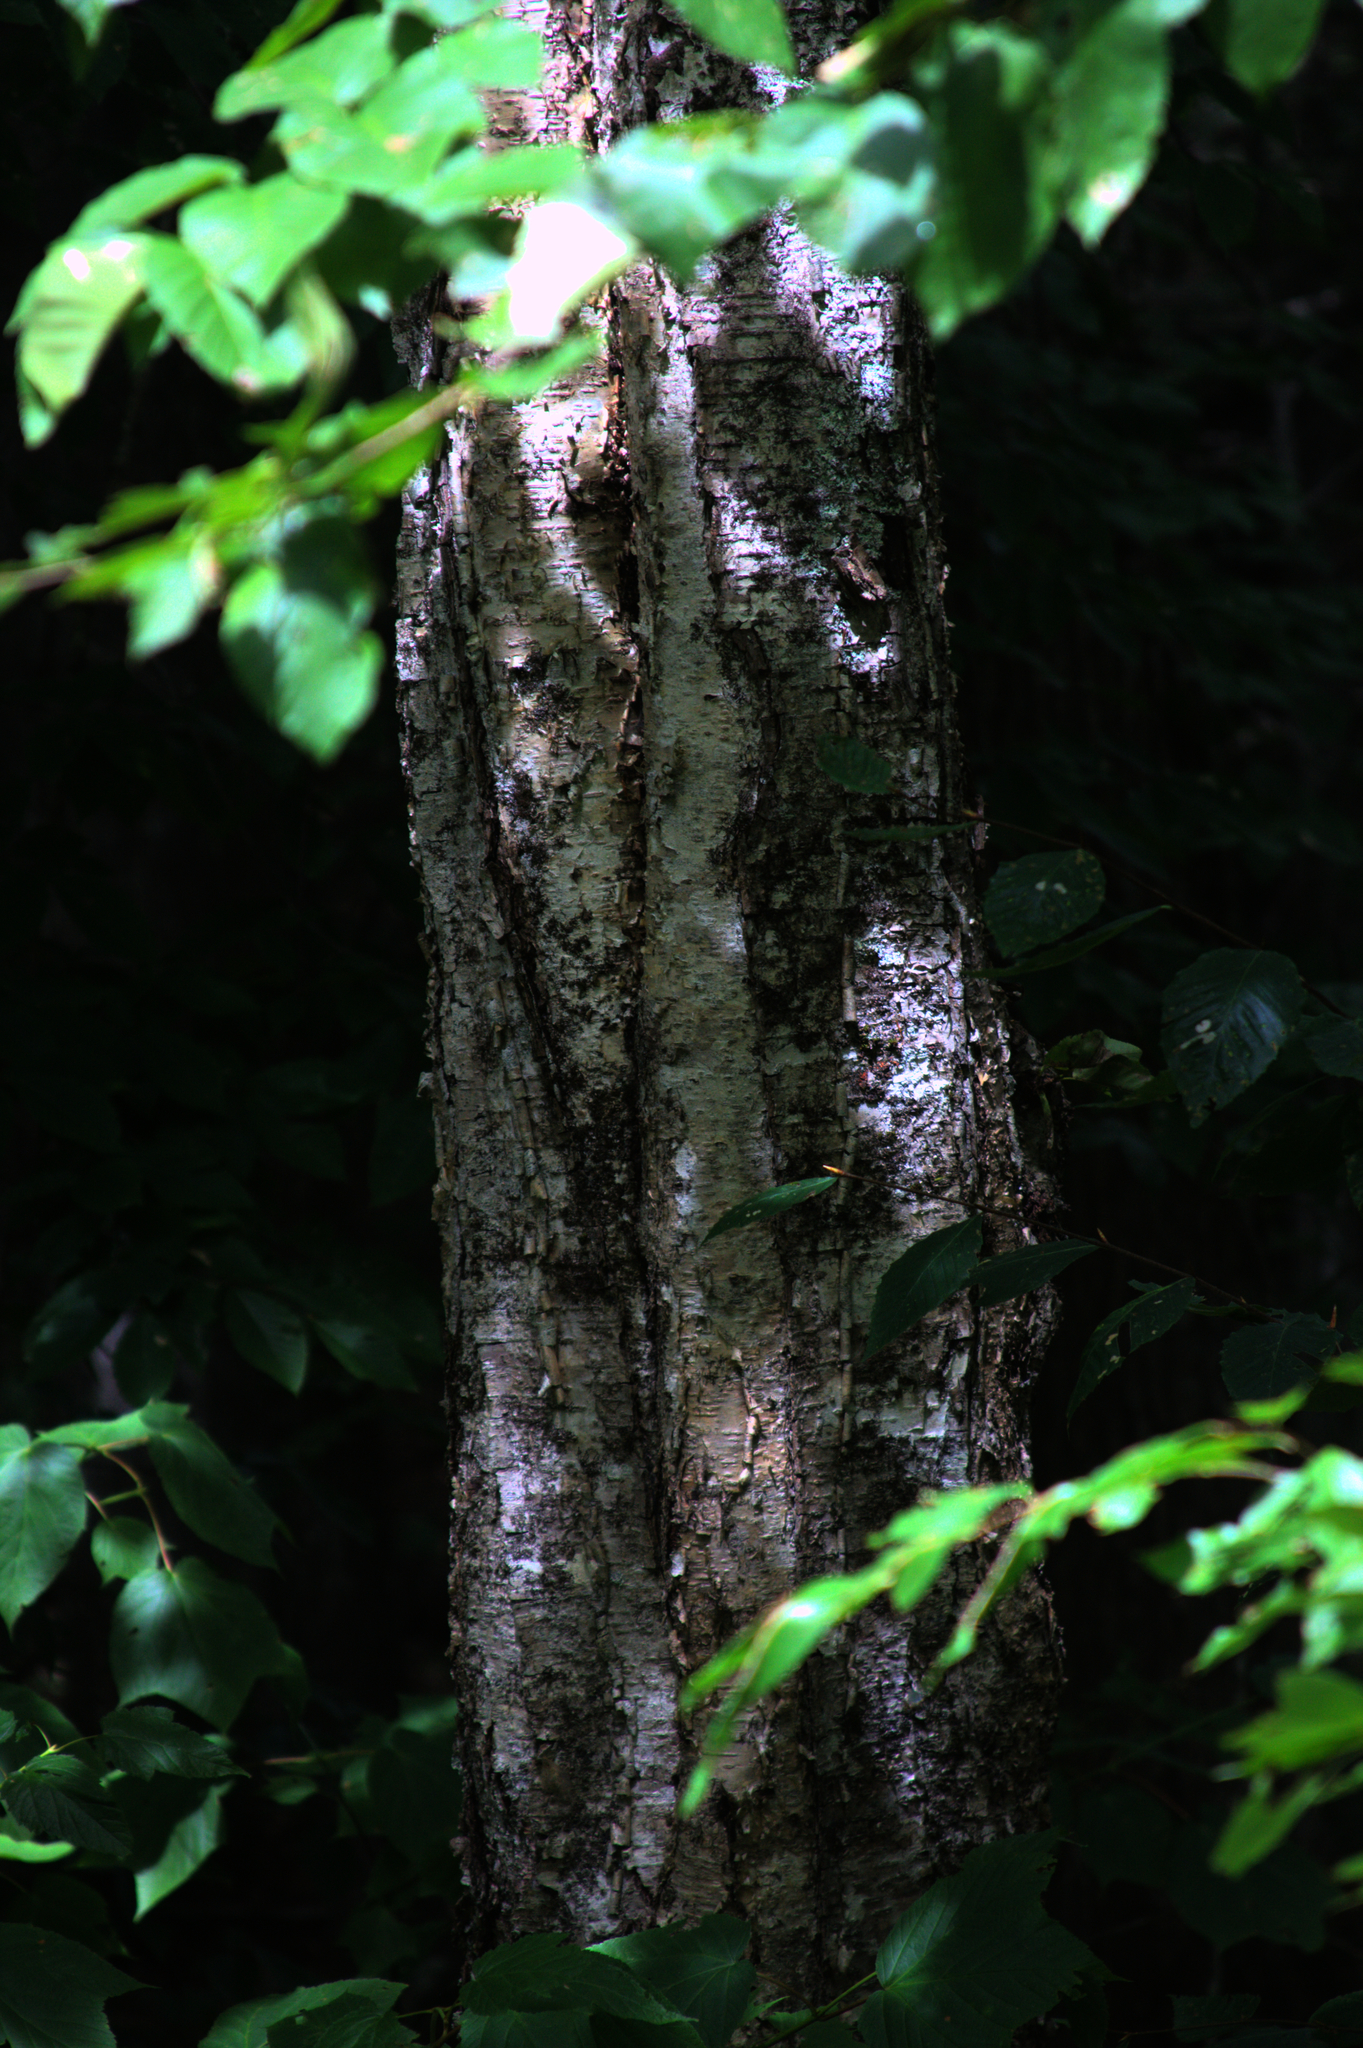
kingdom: Plantae
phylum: Tracheophyta
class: Magnoliopsida
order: Fagales
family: Betulaceae
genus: Betula
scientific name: Betula alleghaniensis
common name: Yellow birch
